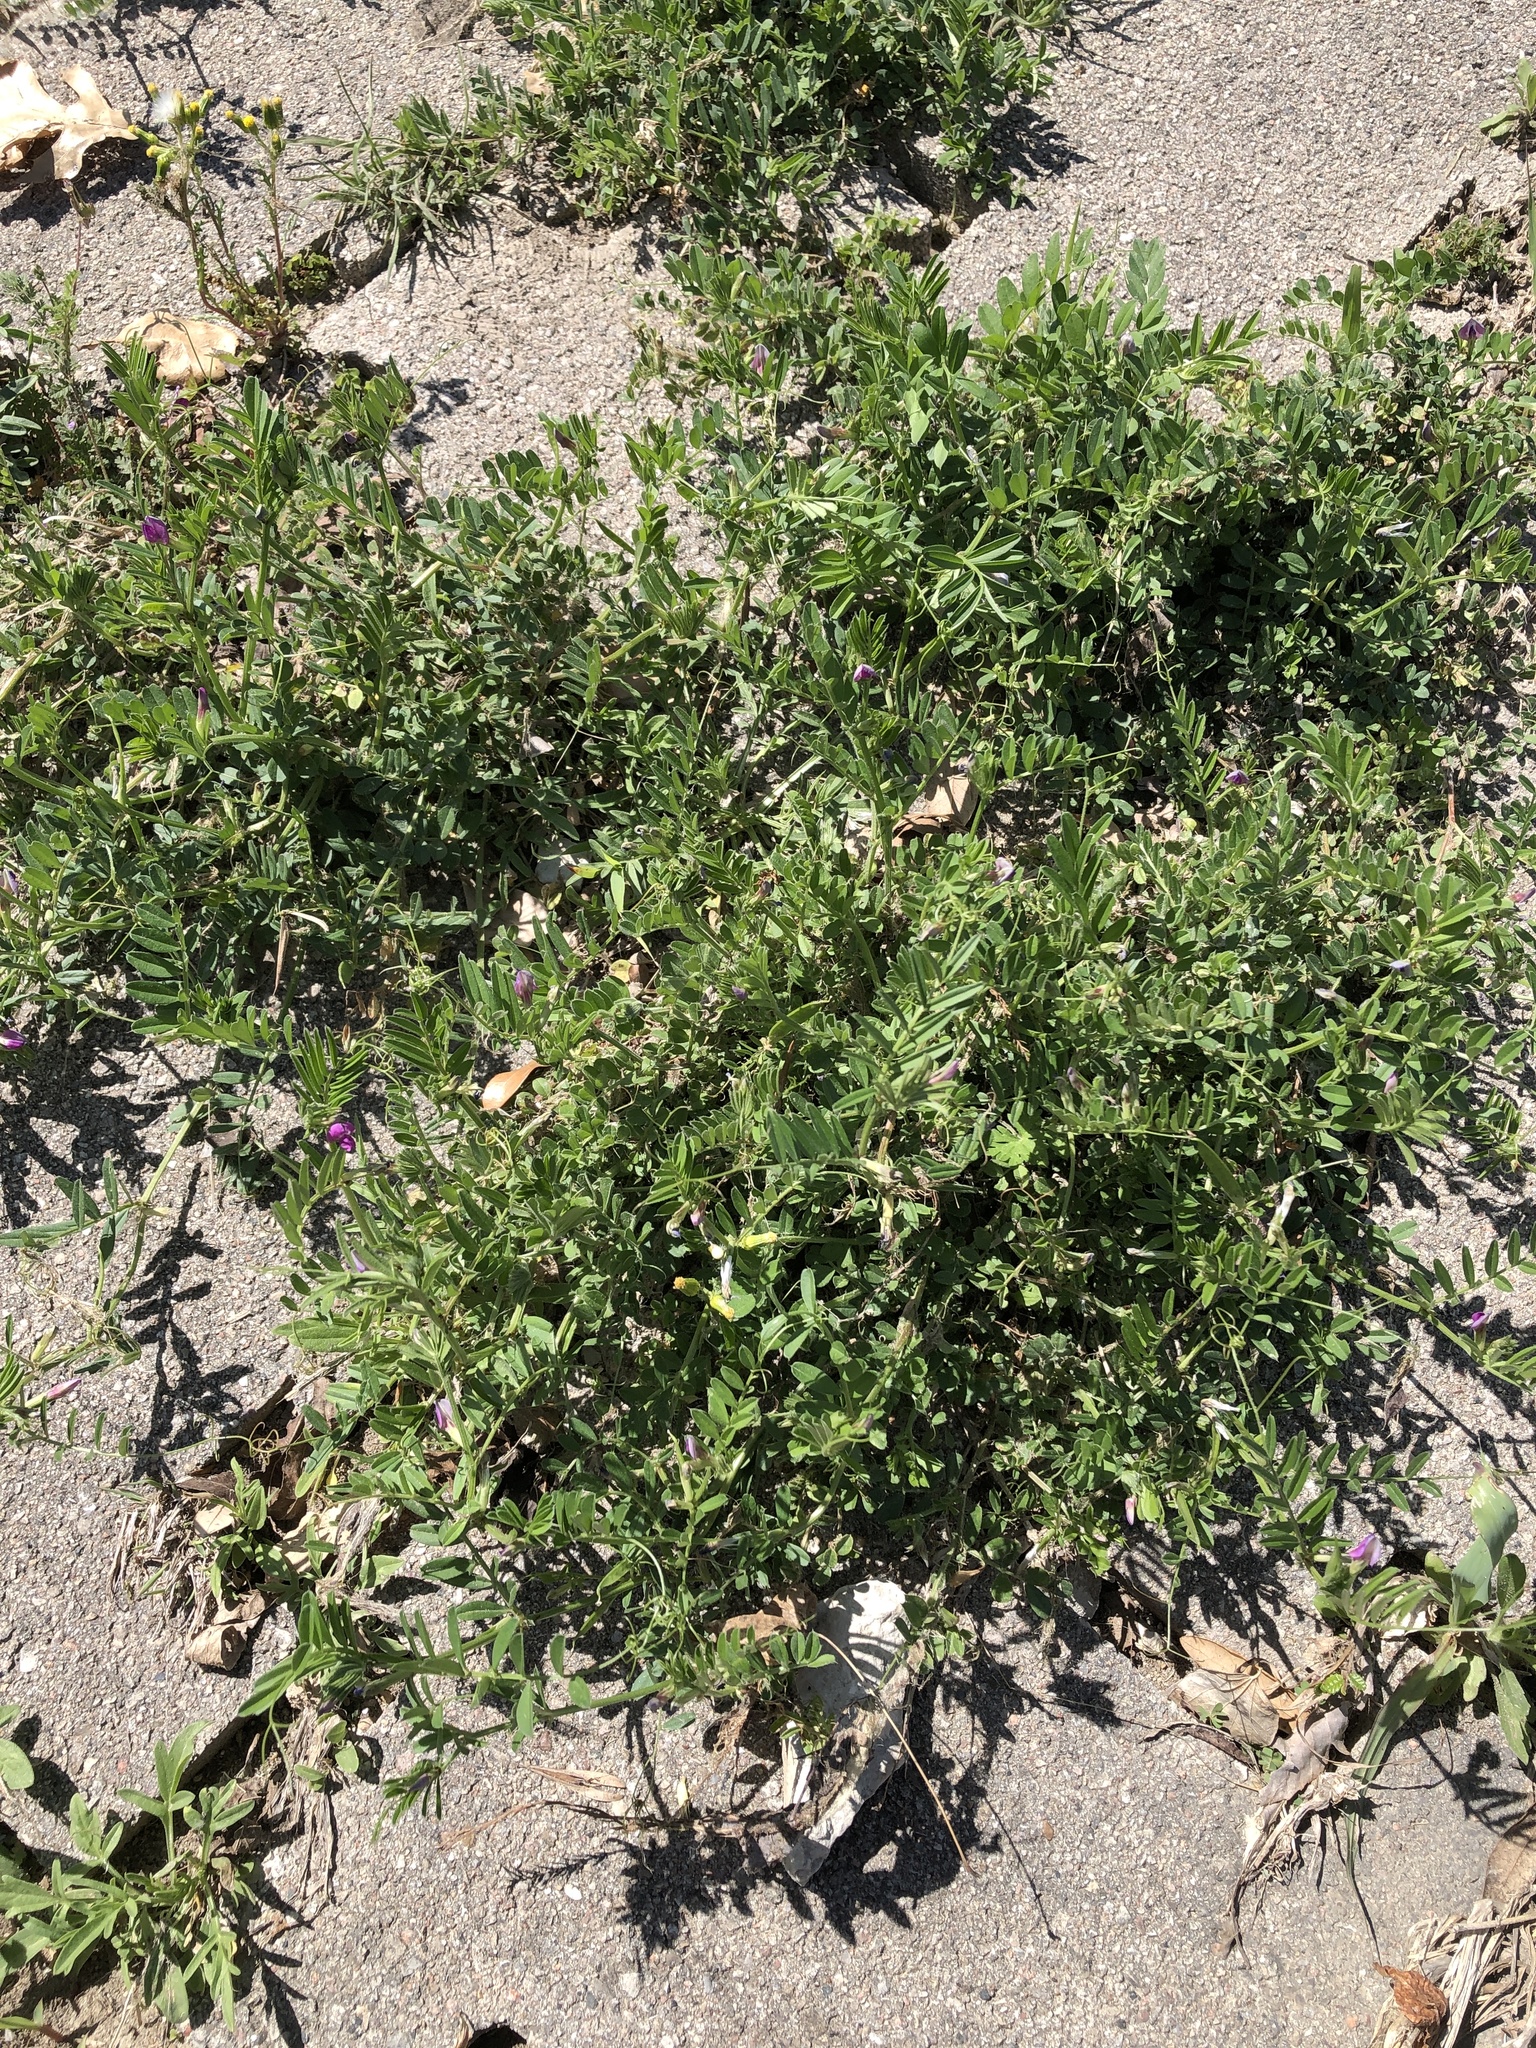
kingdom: Plantae
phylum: Tracheophyta
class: Magnoliopsida
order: Fabales
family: Fabaceae
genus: Vicia
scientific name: Vicia sativa
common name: Garden vetch
